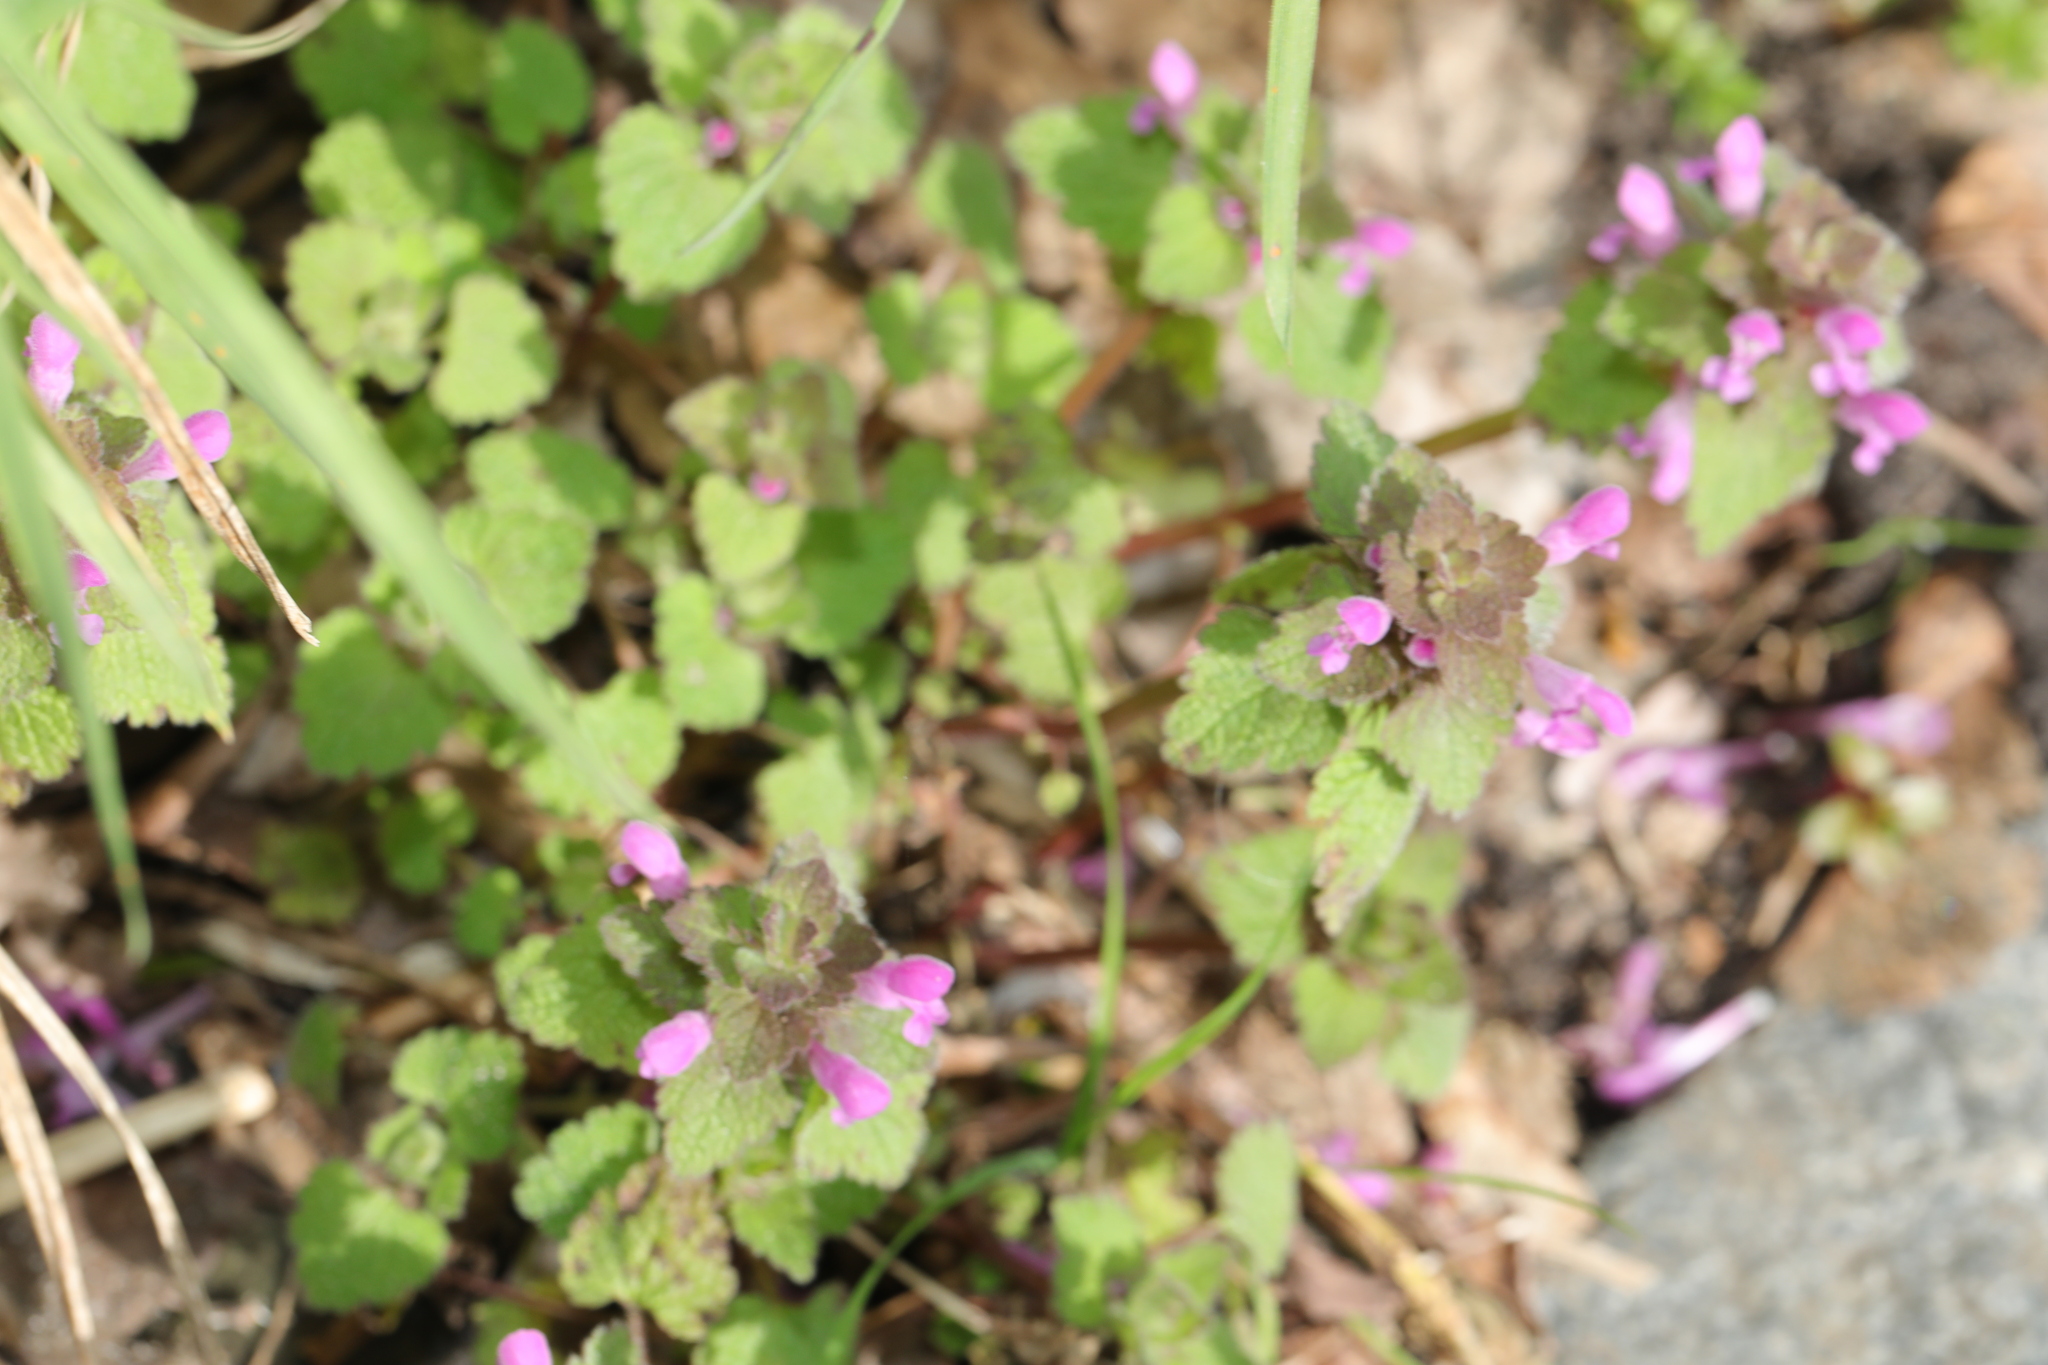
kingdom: Plantae
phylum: Tracheophyta
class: Magnoliopsida
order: Lamiales
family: Lamiaceae
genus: Lamium
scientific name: Lamium purpureum
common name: Red dead-nettle
